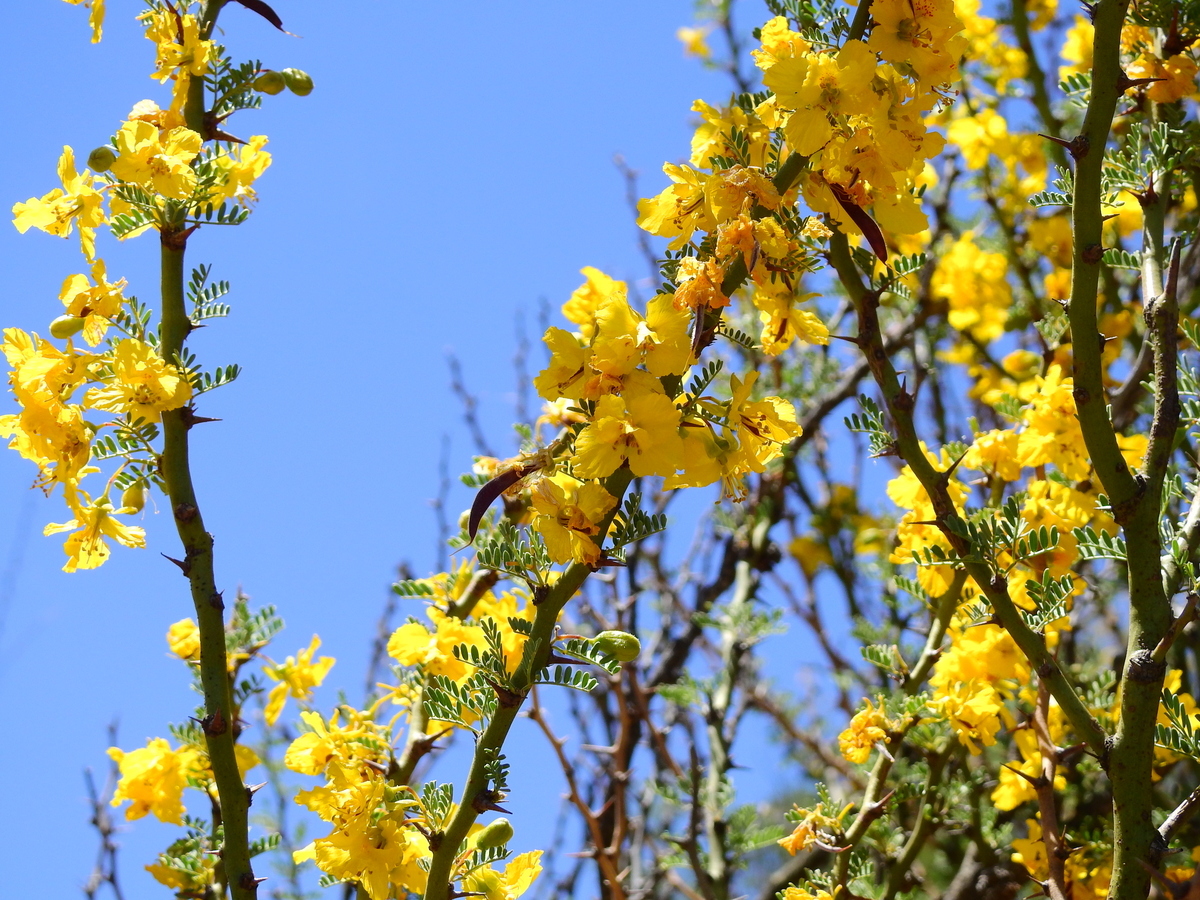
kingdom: Plantae
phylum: Tracheophyta
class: Magnoliopsida
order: Fabales
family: Fabaceae
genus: Parkinsonia
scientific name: Parkinsonia praecox
